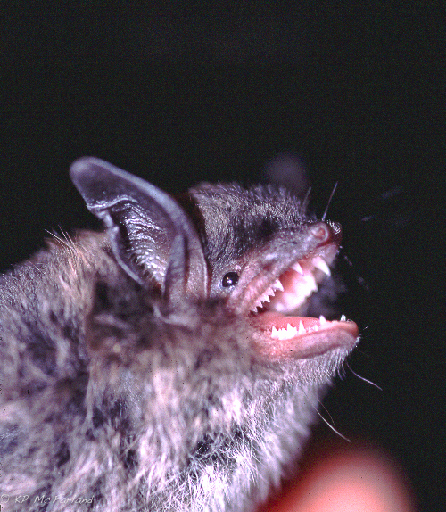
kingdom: Animalia
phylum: Chordata
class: Mammalia
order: Chiroptera
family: Vespertilionidae
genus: Myotis
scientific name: Myotis lucifugus
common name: Little brown bat
